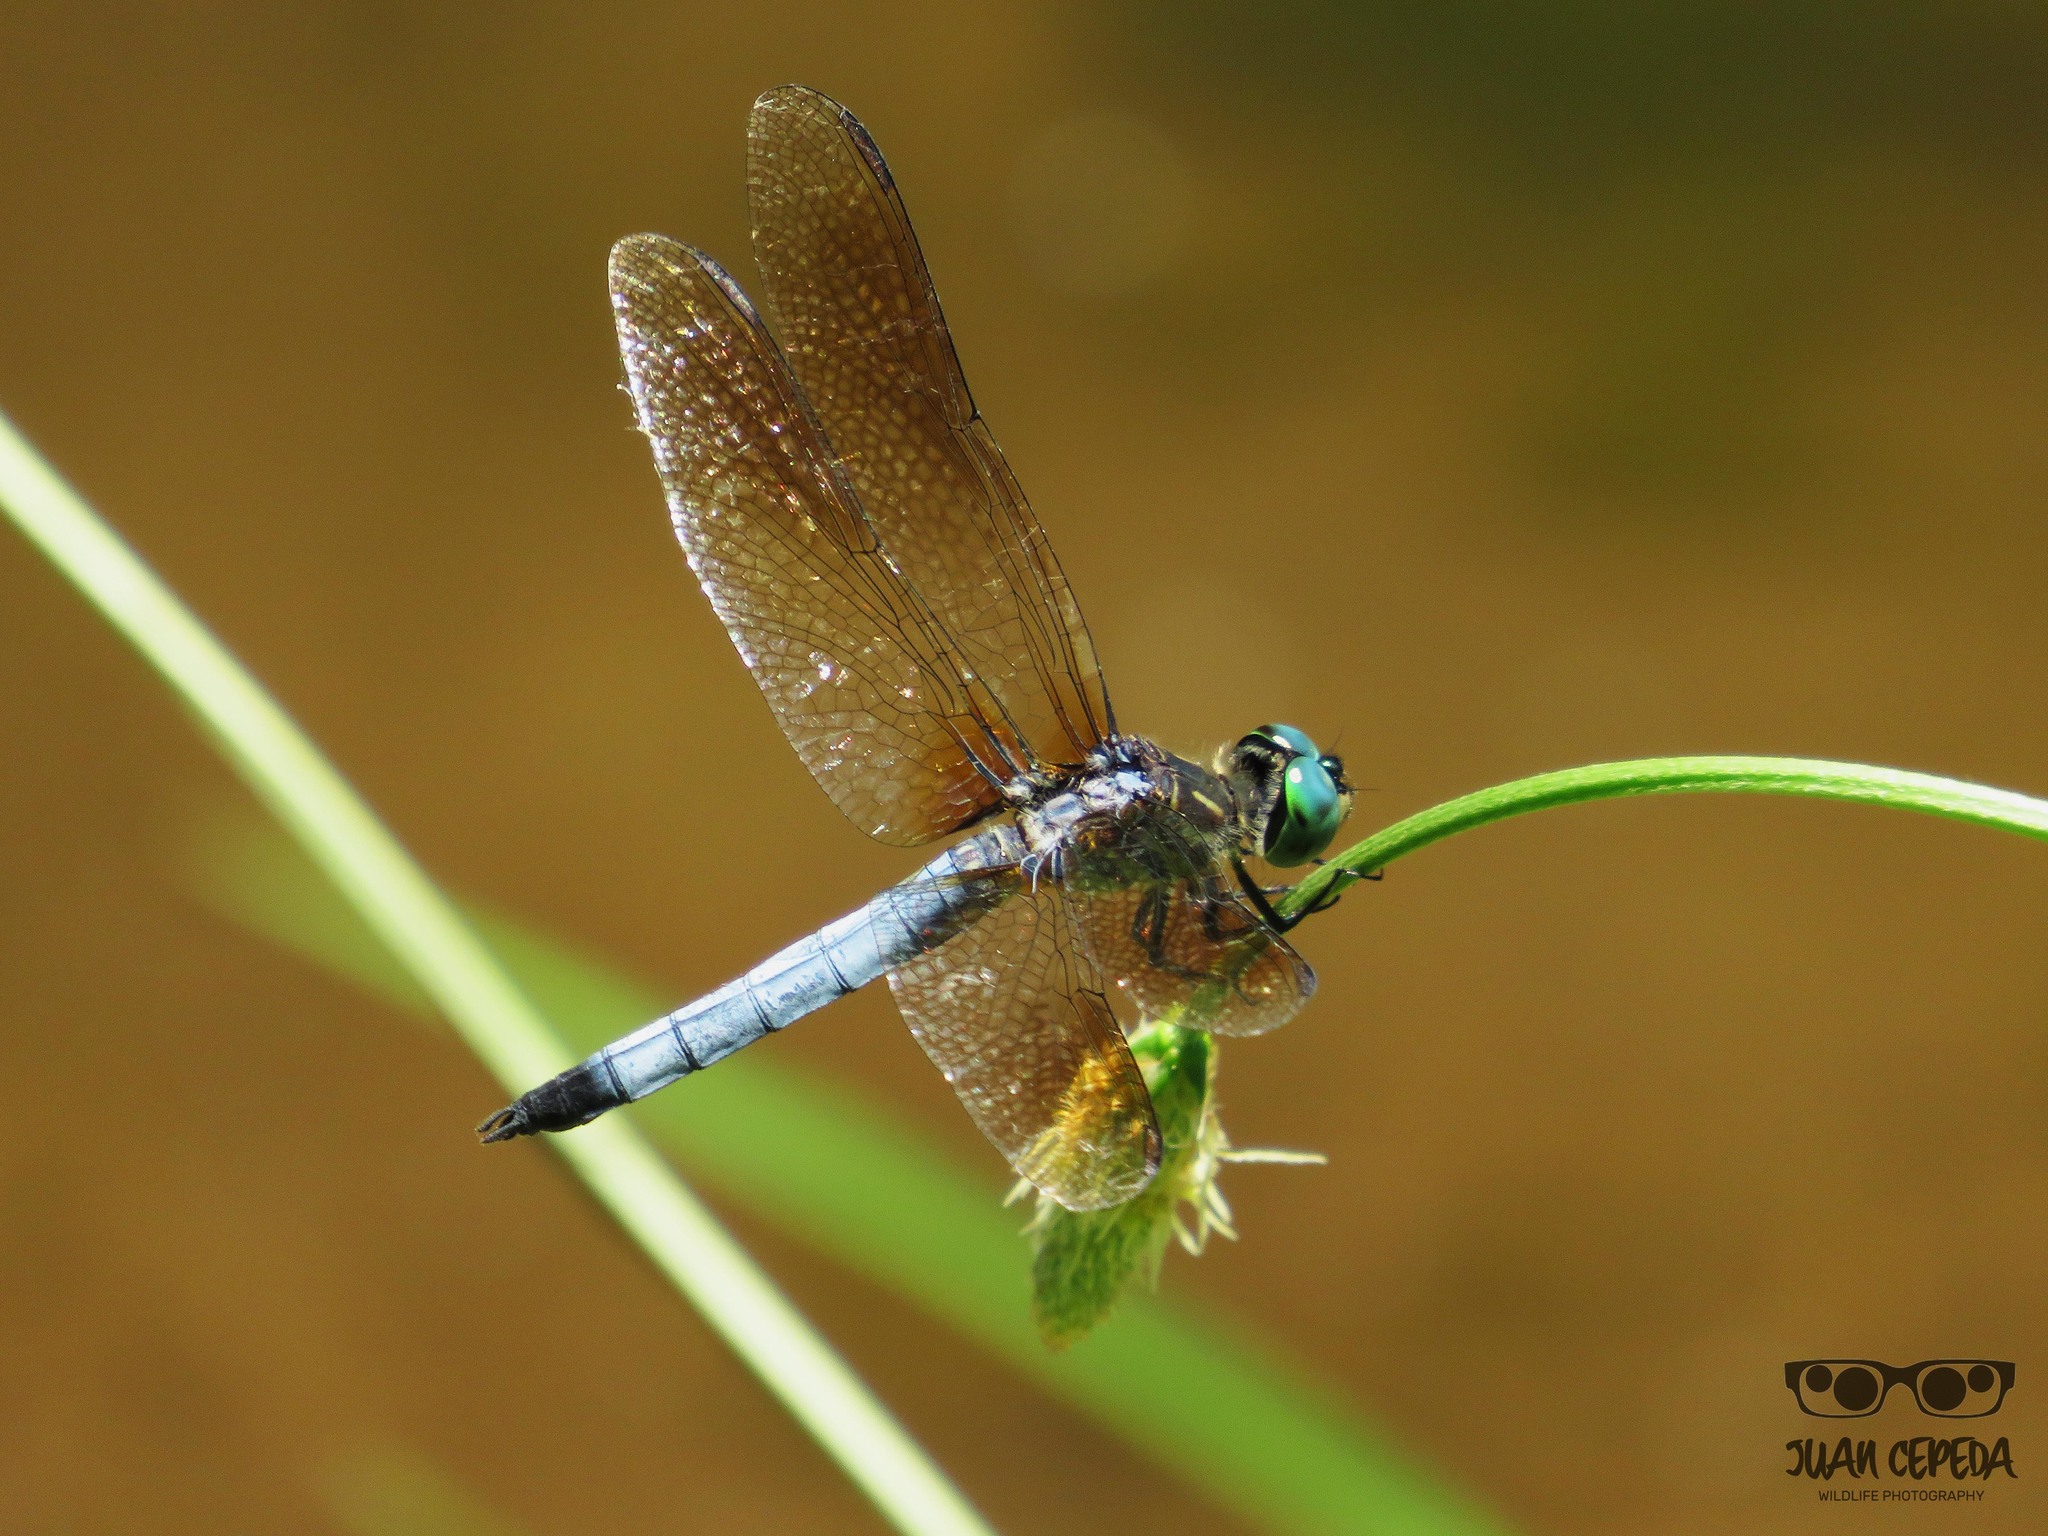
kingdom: Animalia
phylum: Arthropoda
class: Insecta
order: Odonata
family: Libellulidae
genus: Pachydiplax
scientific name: Pachydiplax longipennis
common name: Blue dasher
